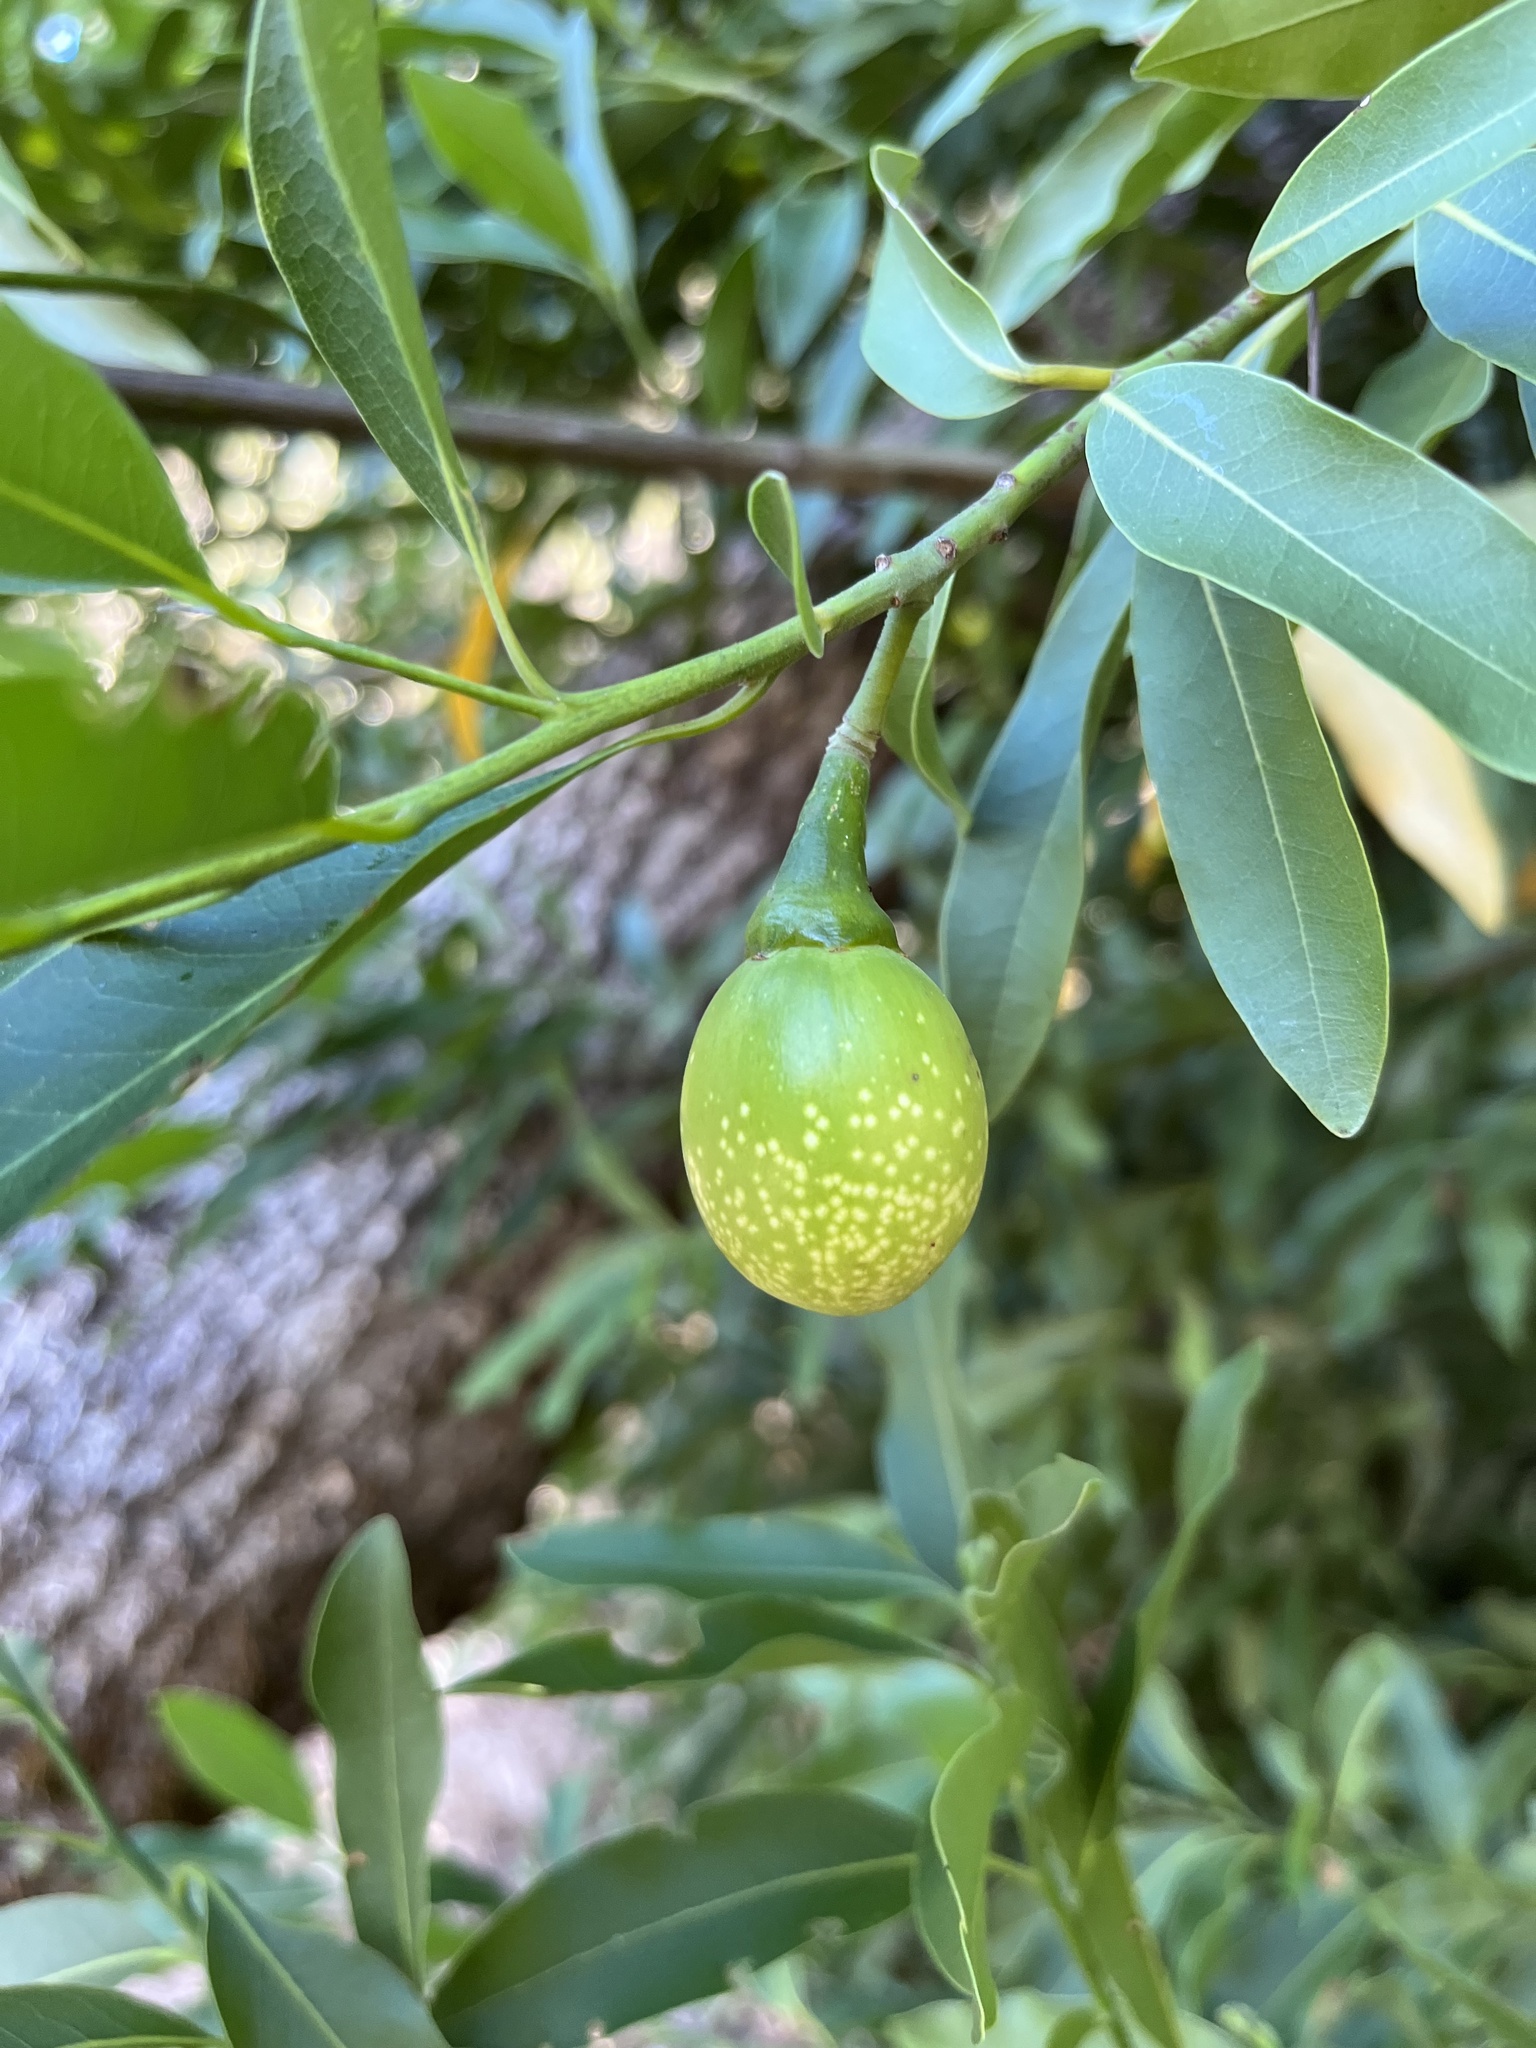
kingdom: Plantae
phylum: Tracheophyta
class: Magnoliopsida
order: Laurales
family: Lauraceae
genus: Umbellularia
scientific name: Umbellularia californica
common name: California bay
